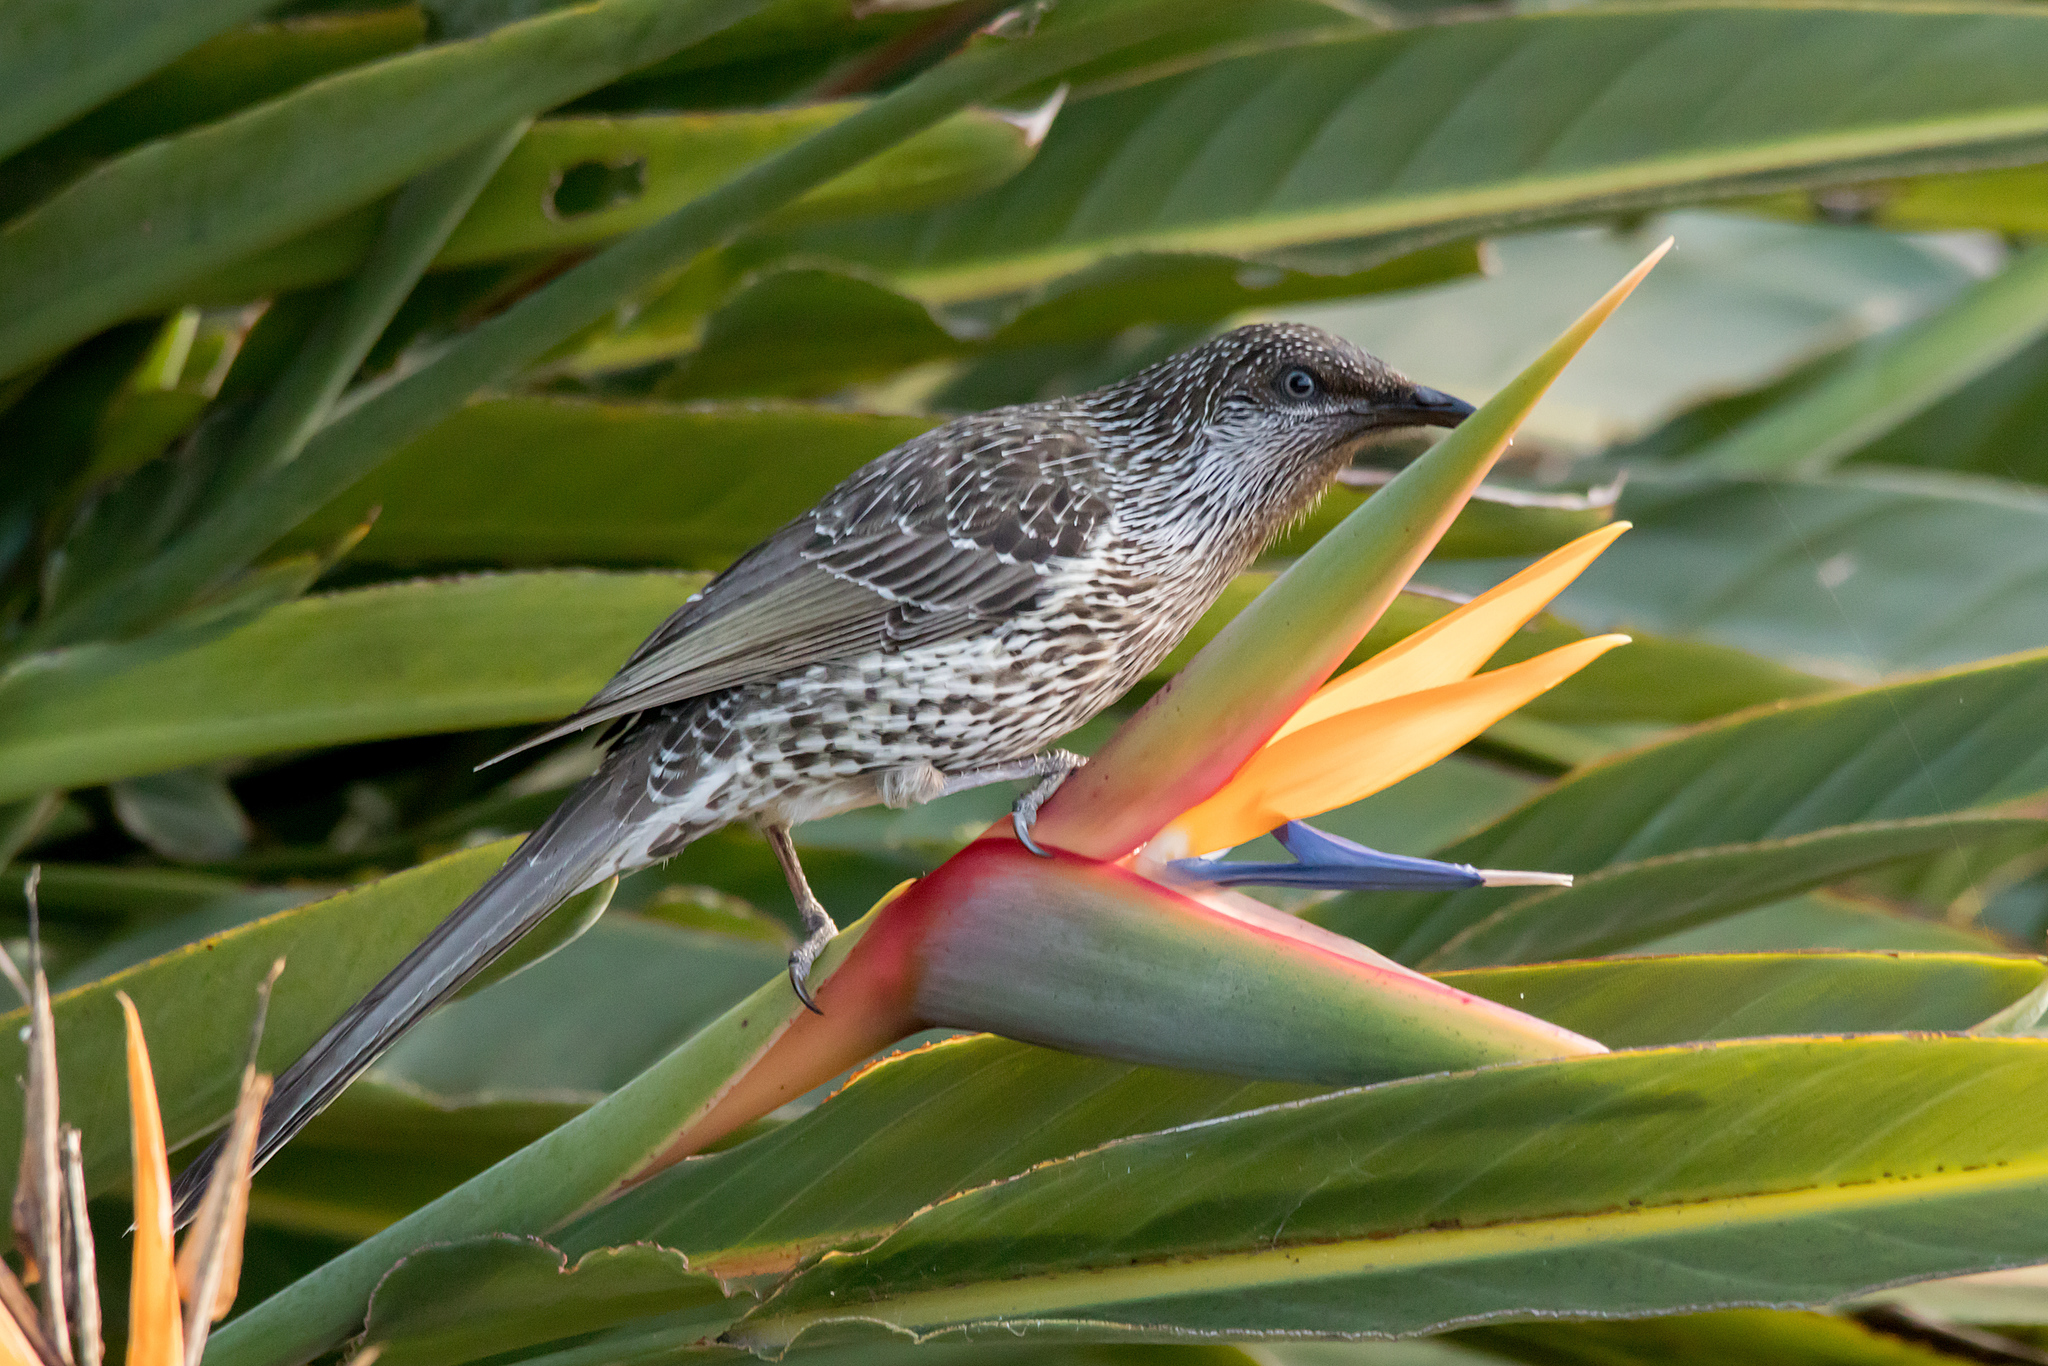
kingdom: Animalia
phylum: Chordata
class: Aves
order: Passeriformes
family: Meliphagidae
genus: Anthochaera
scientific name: Anthochaera chrysoptera
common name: Little wattlebird
